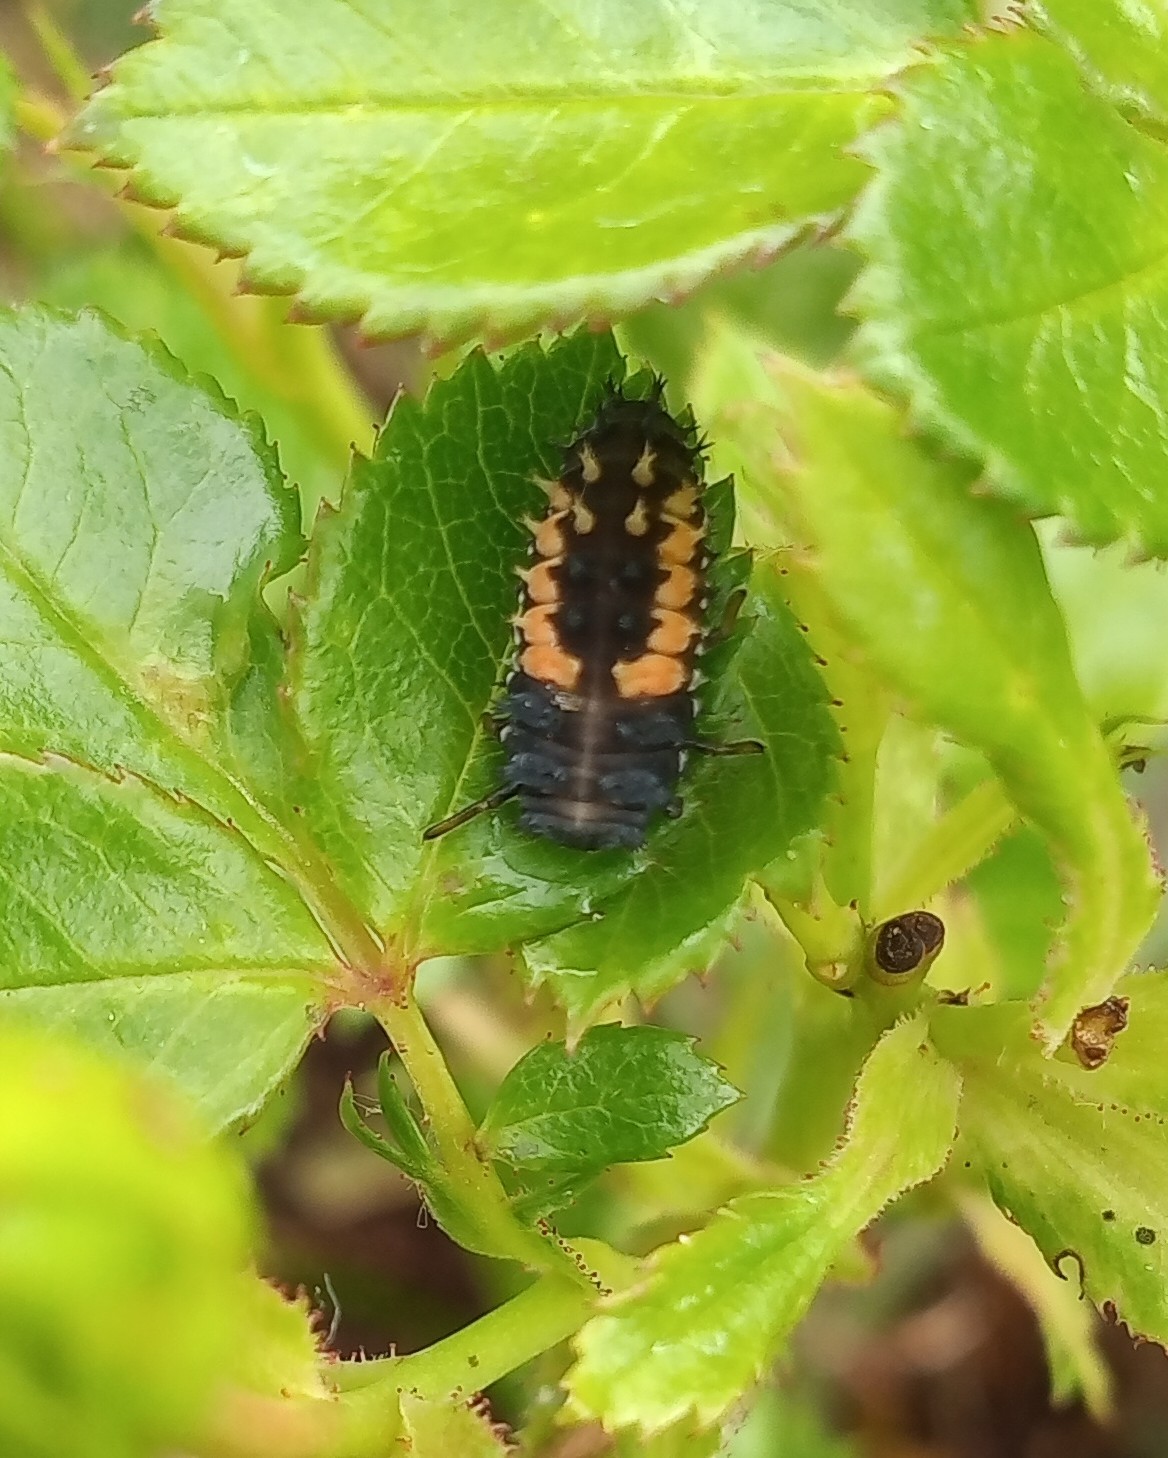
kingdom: Animalia
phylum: Arthropoda
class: Insecta
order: Coleoptera
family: Coccinellidae
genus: Harmonia
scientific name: Harmonia axyridis
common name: Harlequin ladybird
